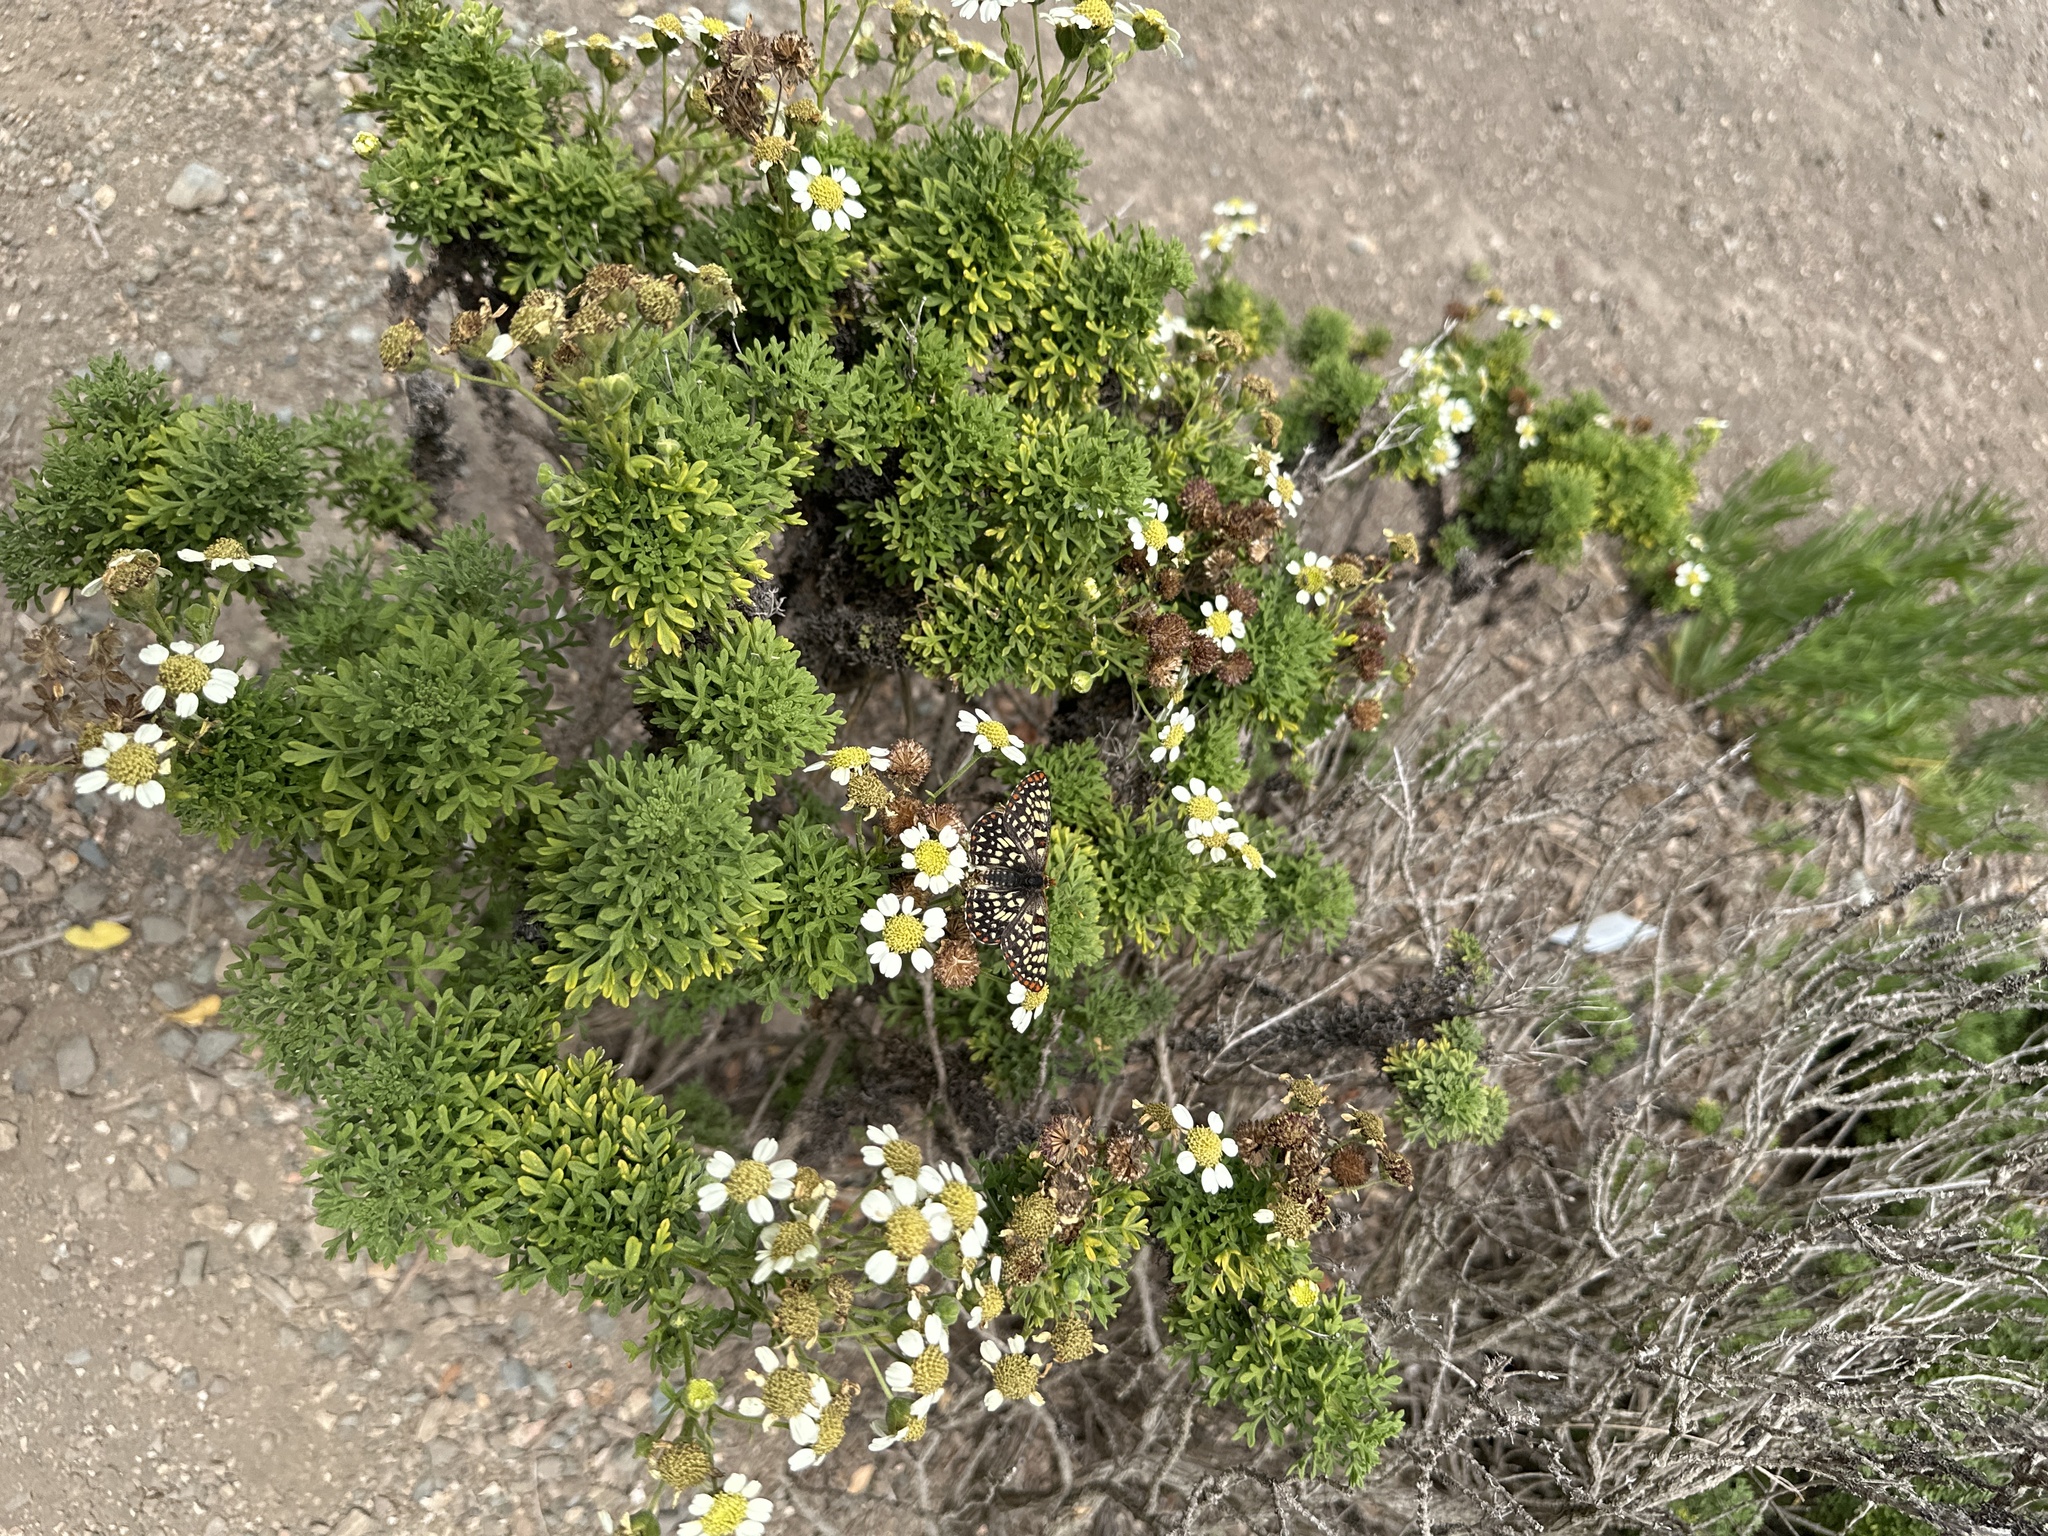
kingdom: Animalia
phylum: Arthropoda
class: Insecta
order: Lepidoptera
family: Nymphalidae
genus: Occidryas
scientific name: Occidryas chalcedona
